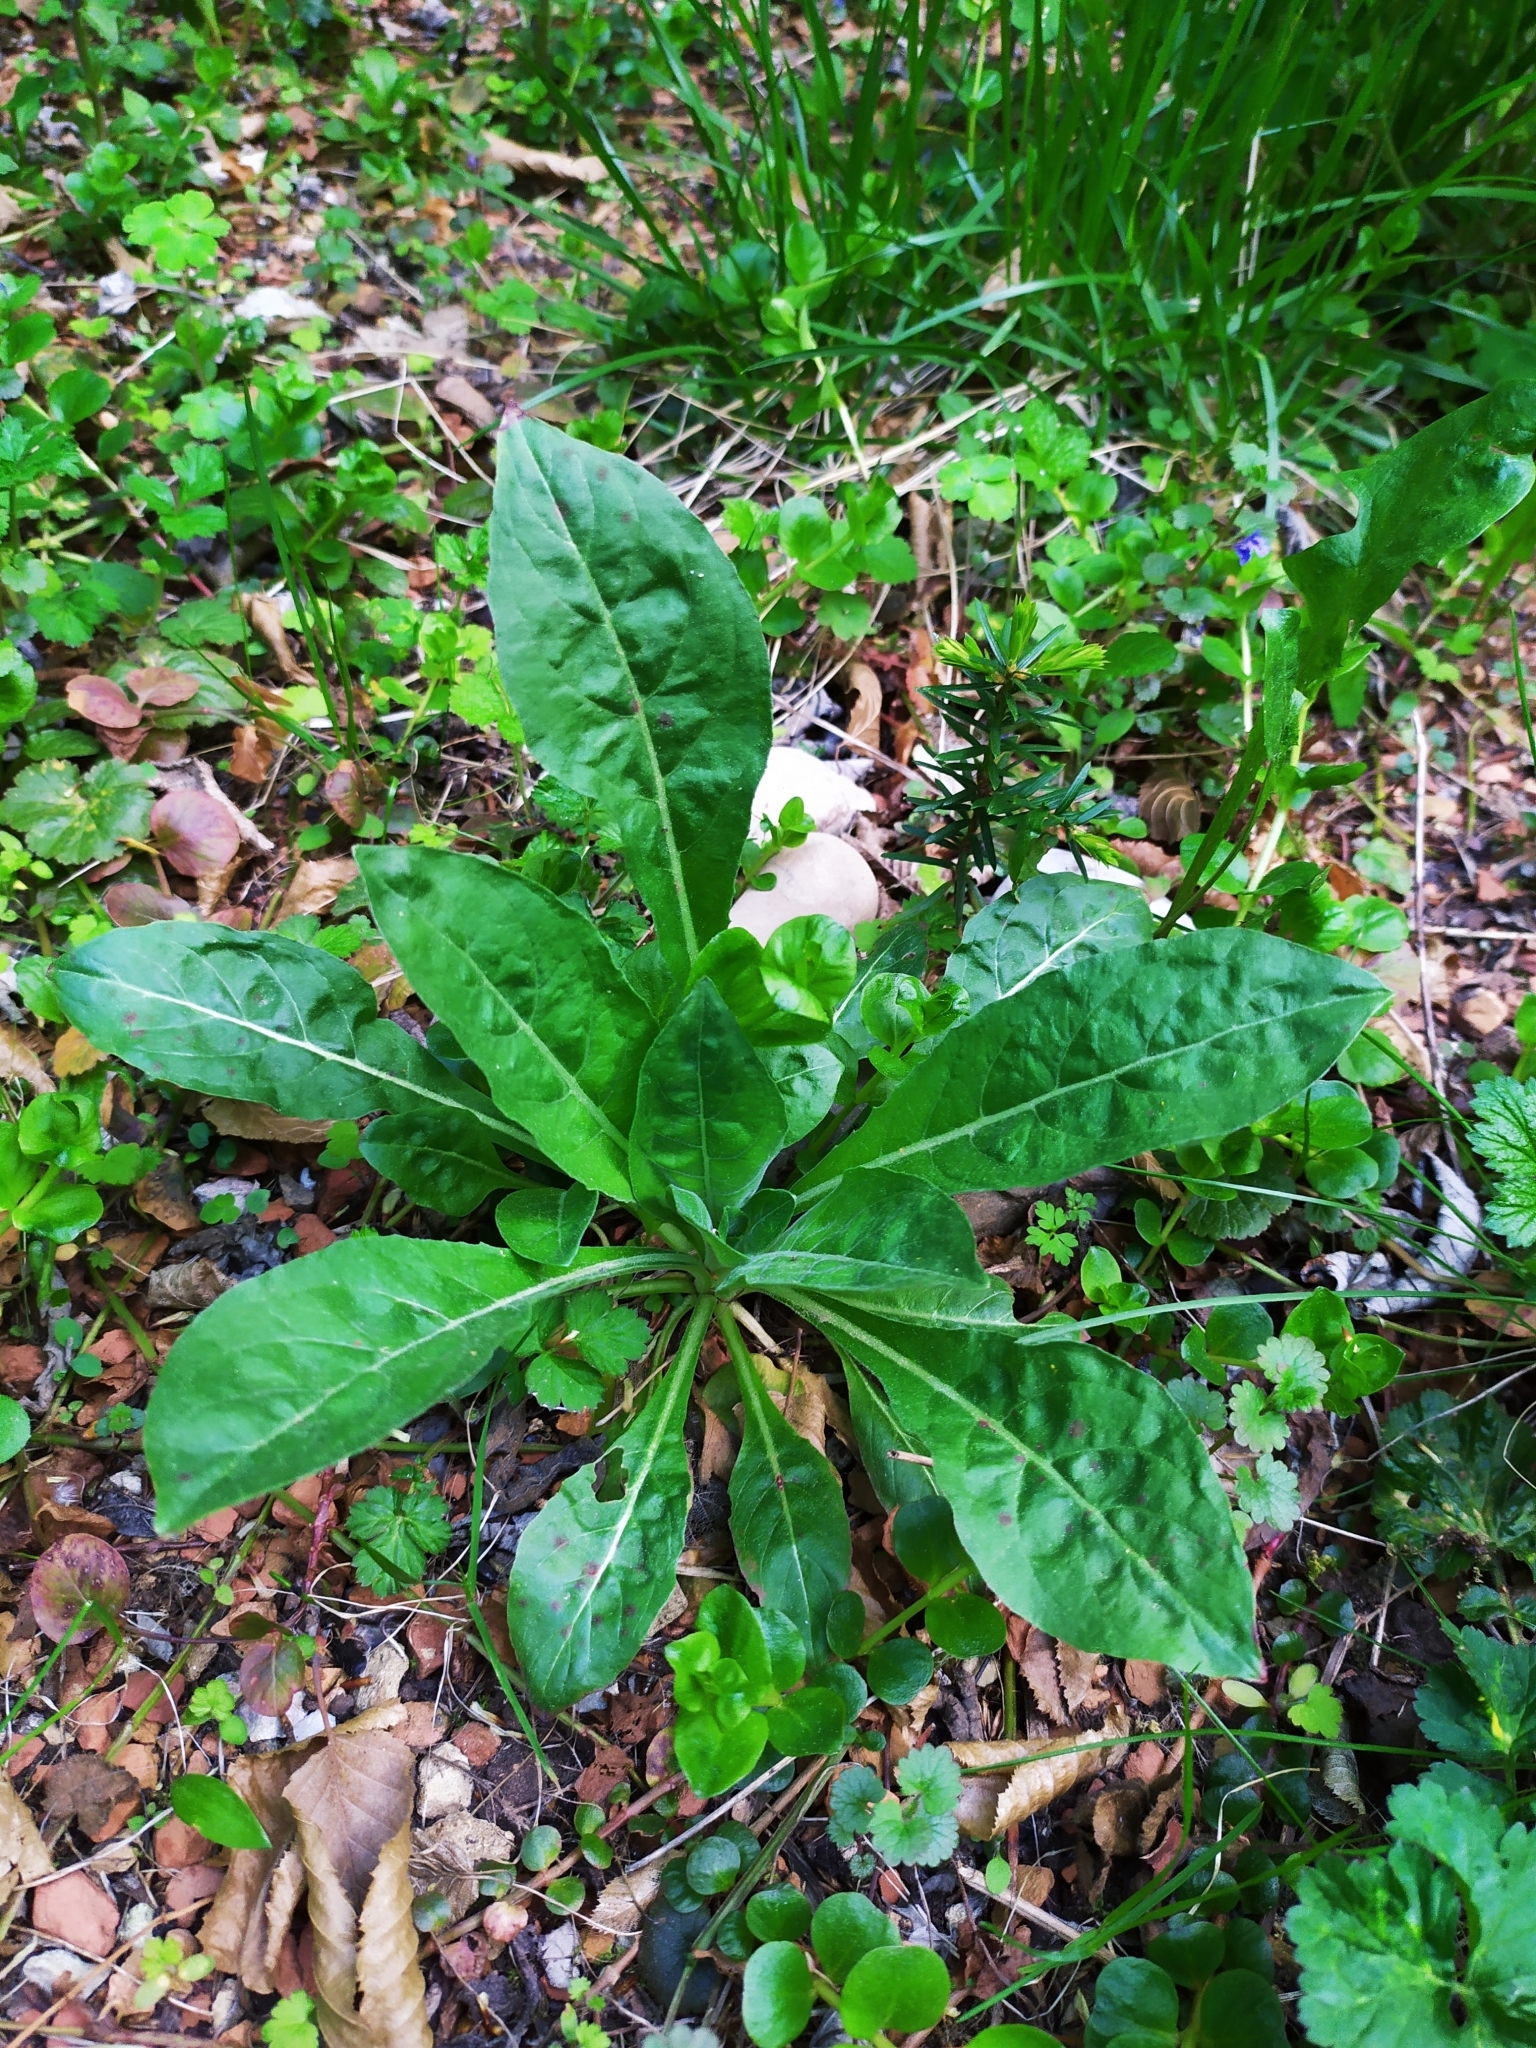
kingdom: Plantae
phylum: Tracheophyta
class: Magnoliopsida
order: Myrtales
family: Onagraceae
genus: Oenothera
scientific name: Oenothera oehlkersii
